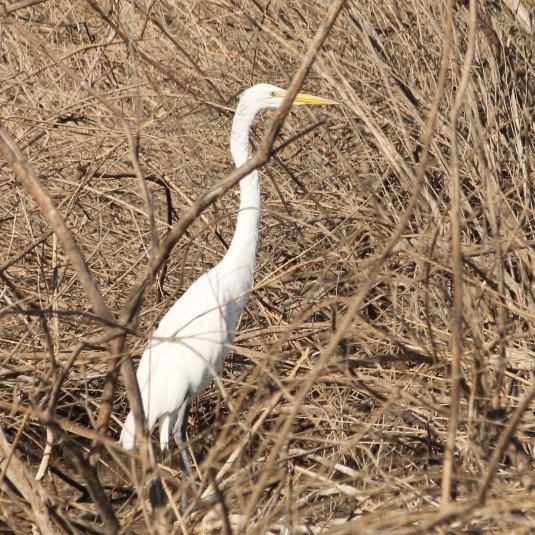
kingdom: Animalia
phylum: Chordata
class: Aves
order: Pelecaniformes
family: Ardeidae
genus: Ardea
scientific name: Ardea alba
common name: Great egret
